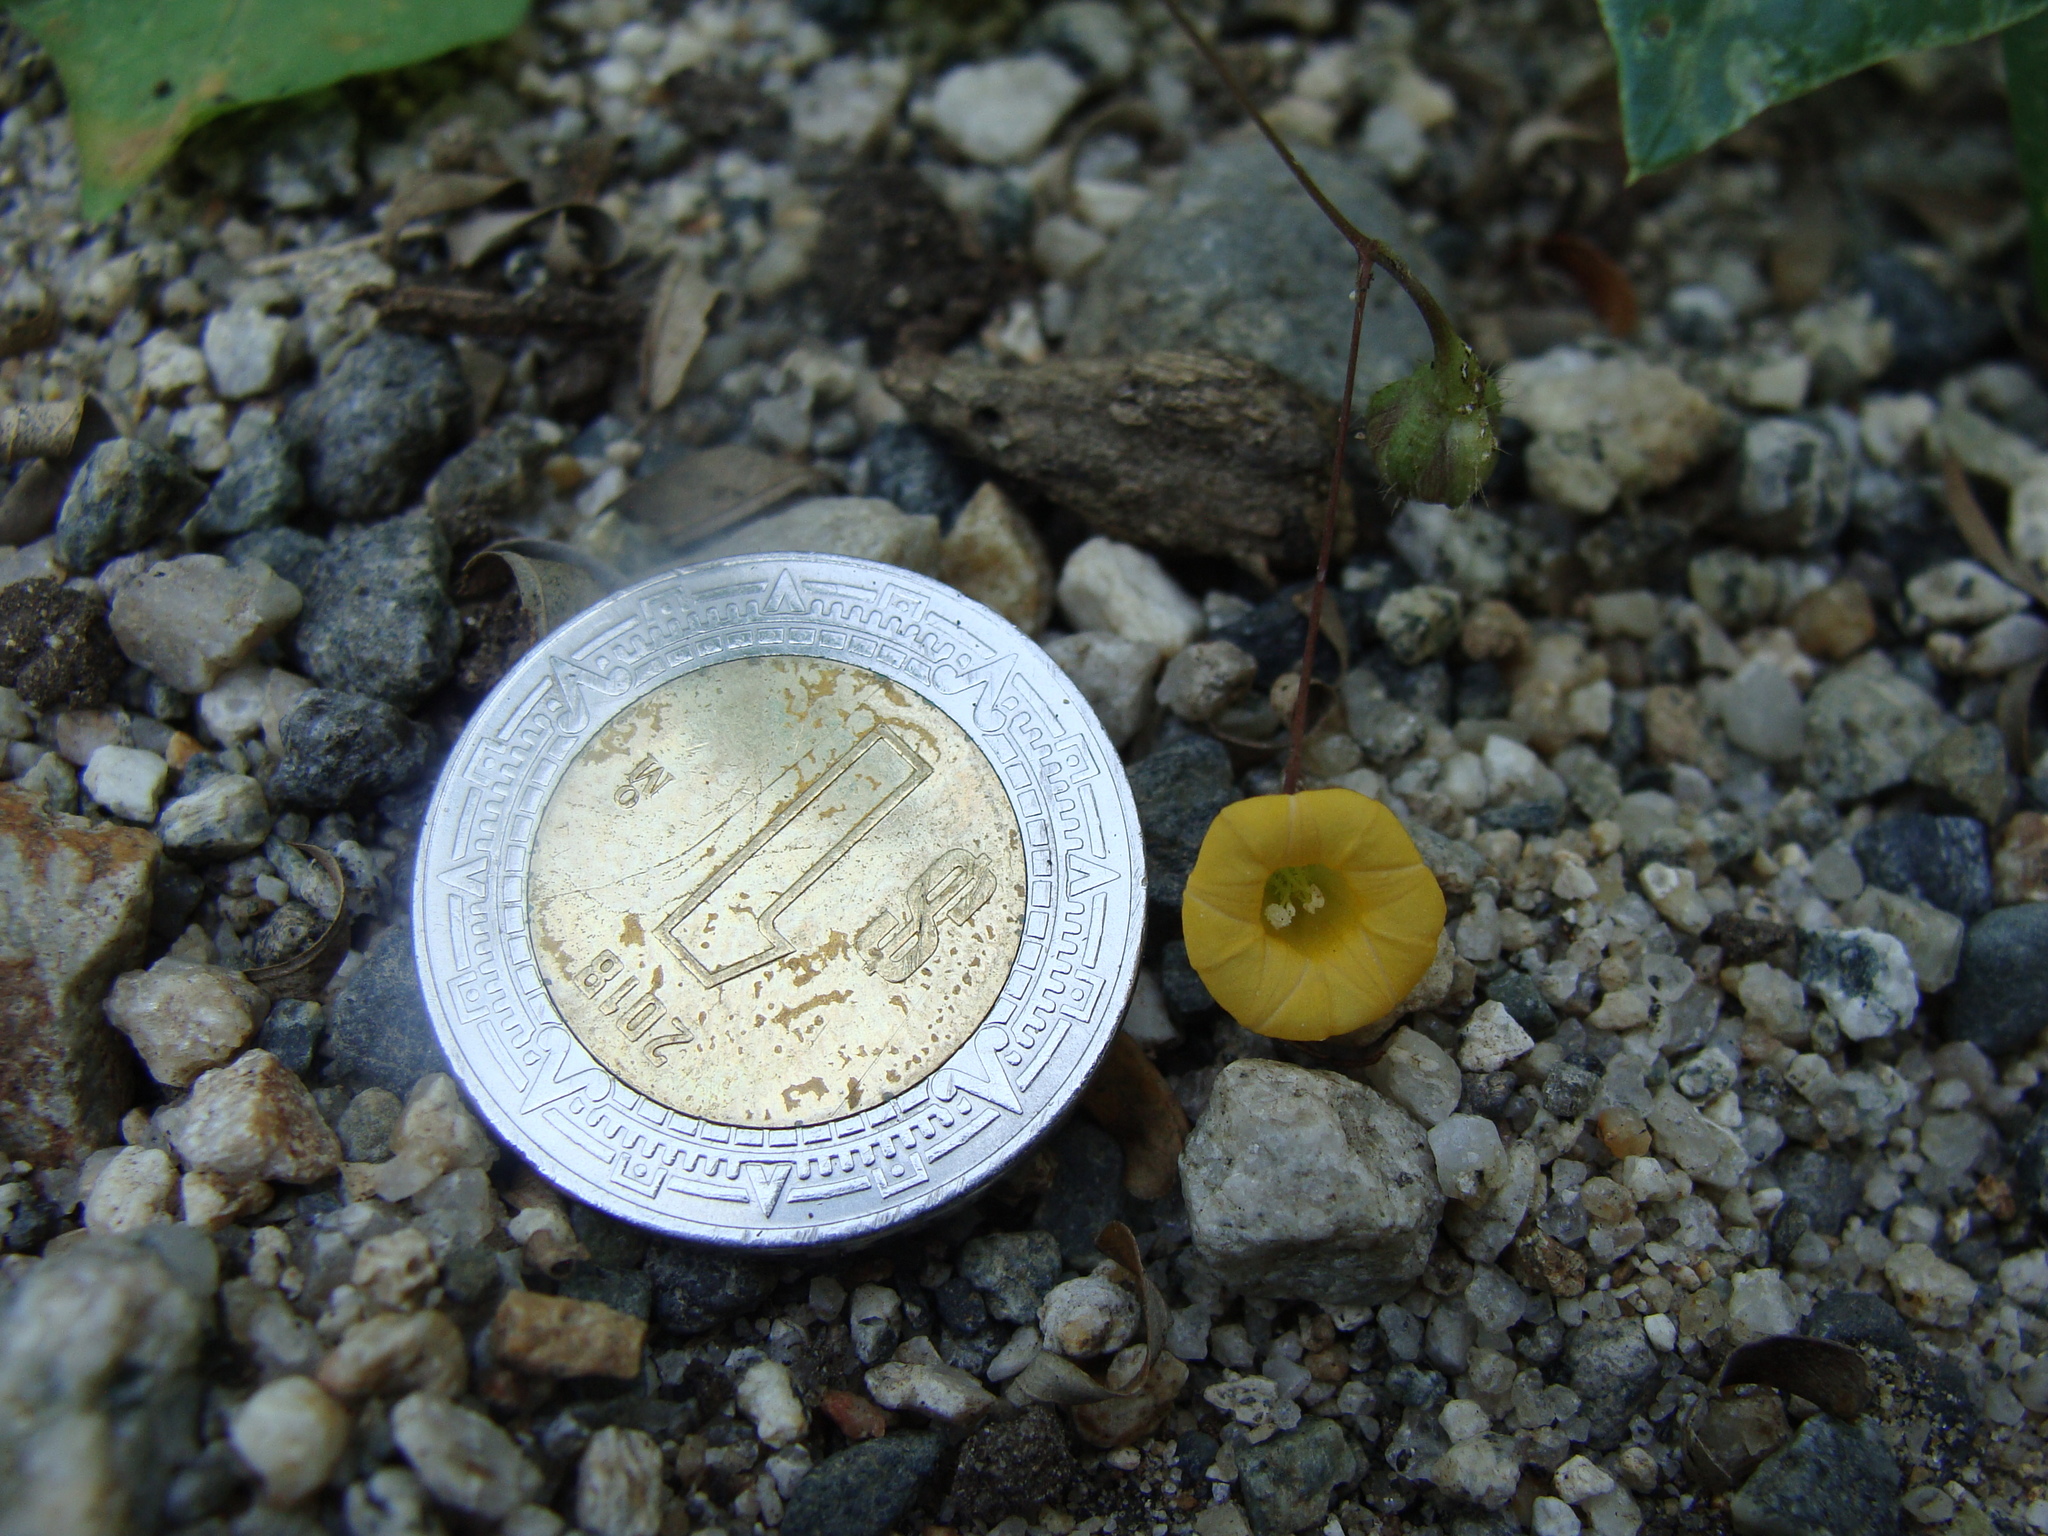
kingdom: Plantae
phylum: Tracheophyta
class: Magnoliopsida
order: Solanales
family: Convolvulaceae
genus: Ipomoea
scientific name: Ipomoea minutiflora
